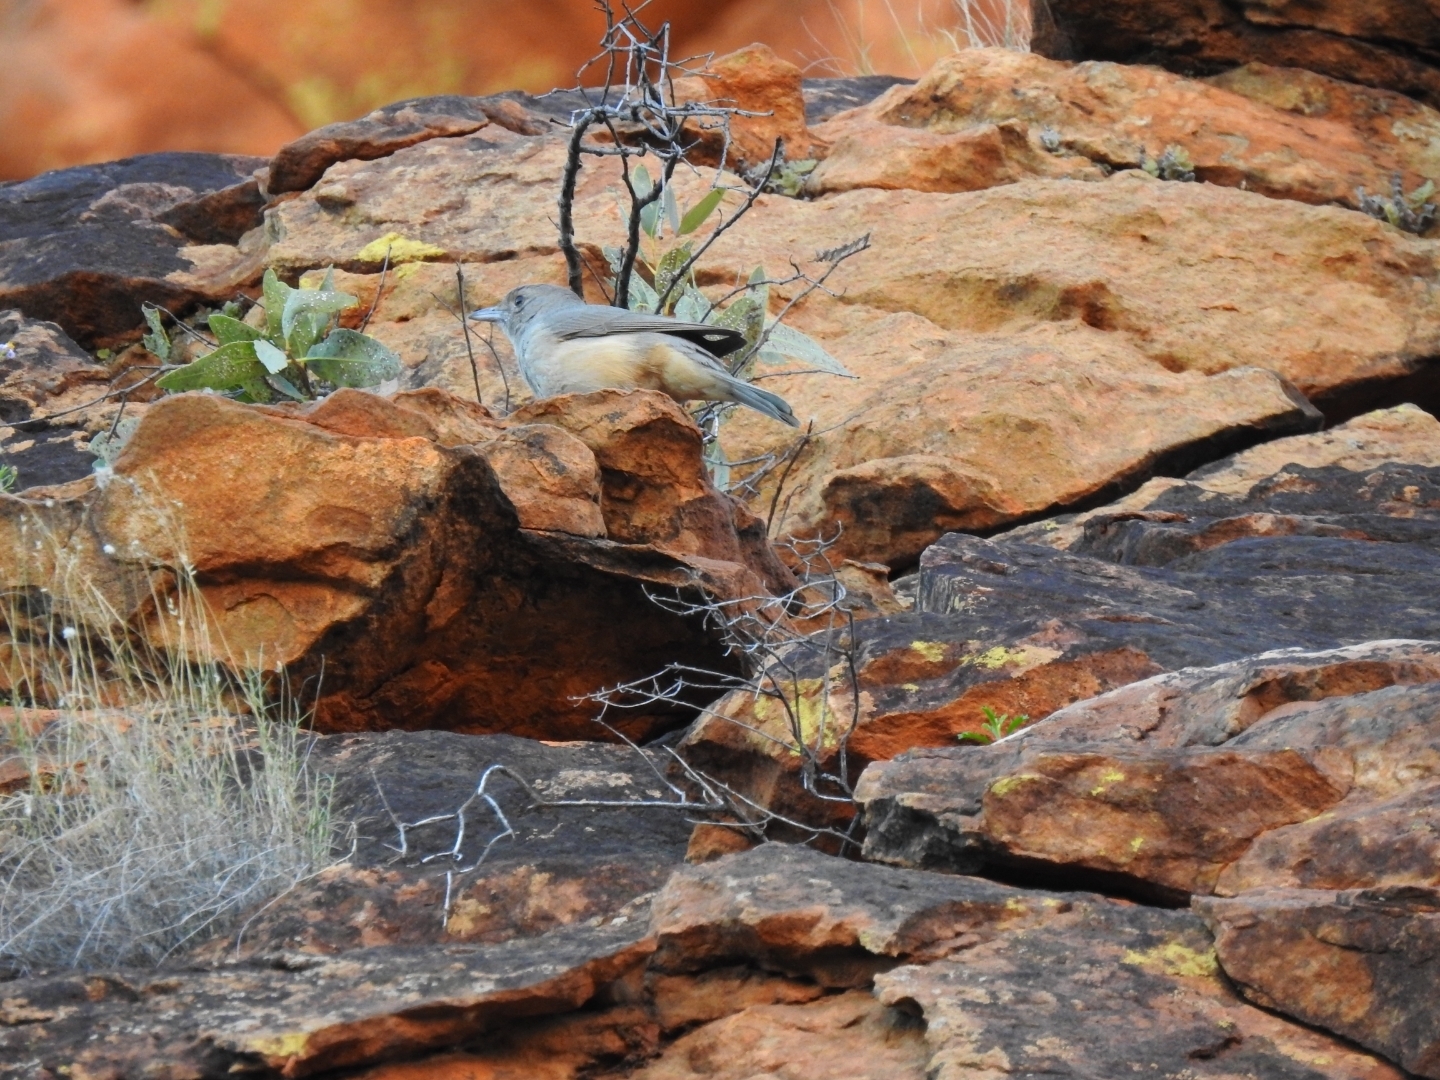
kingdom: Animalia
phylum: Chordata
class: Aves
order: Passeriformes
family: Pachycephalidae
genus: Colluricincla
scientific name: Colluricincla harmonica
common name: Grey shrikethrush
